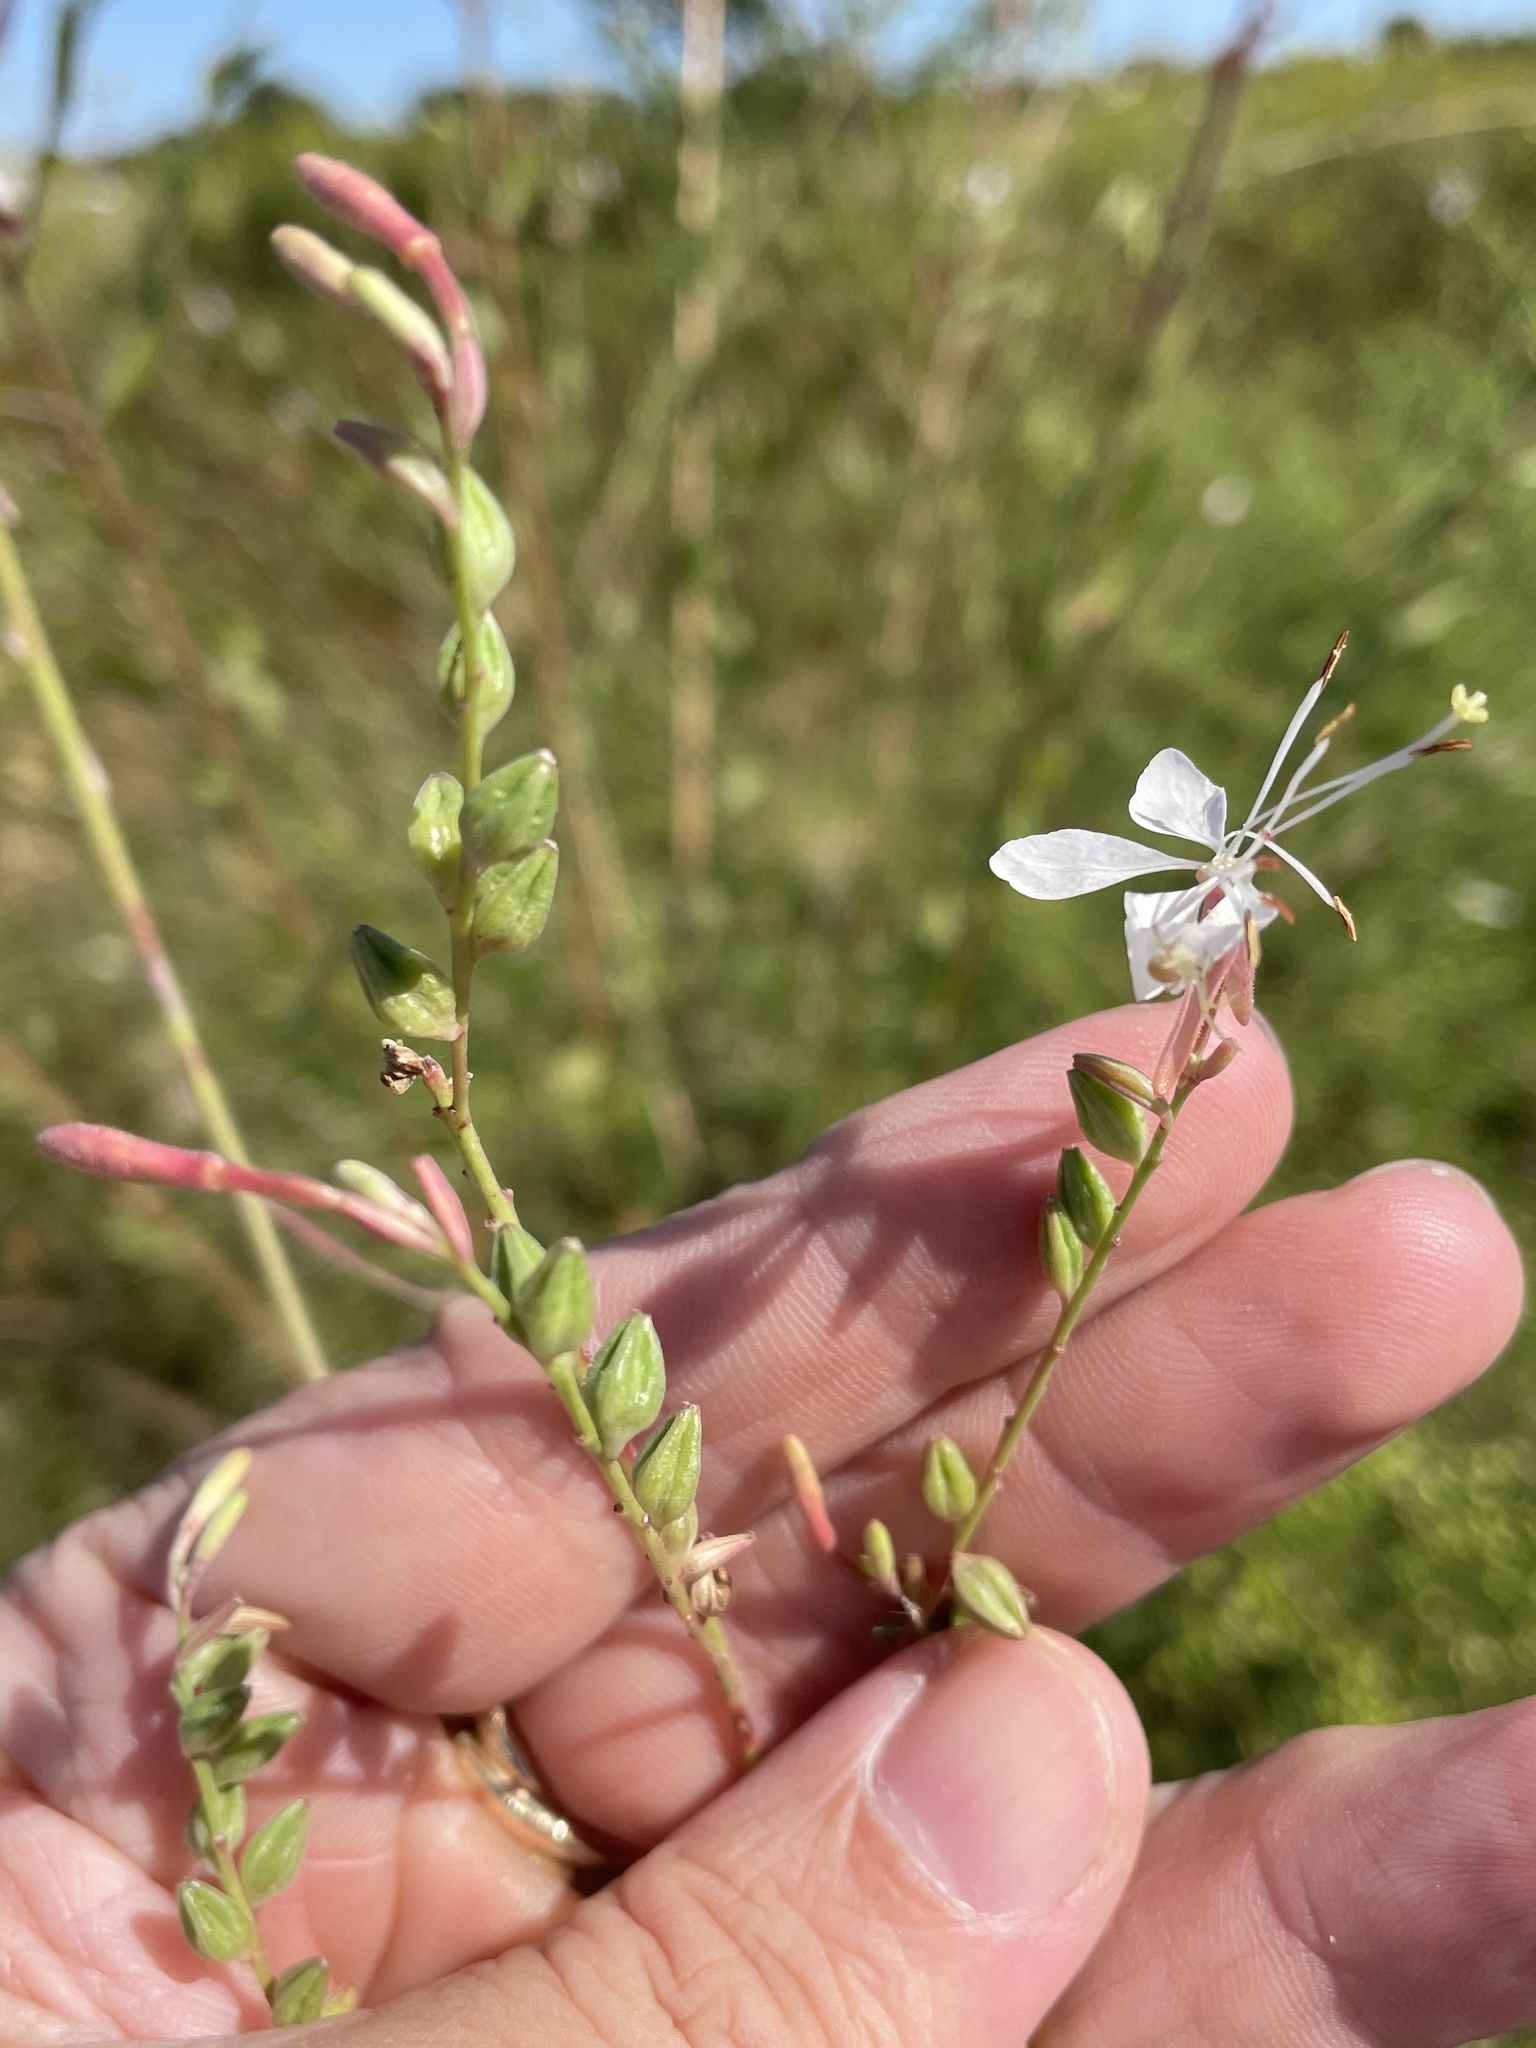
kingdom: Plantae
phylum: Tracheophyta
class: Magnoliopsida
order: Myrtales
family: Onagraceae
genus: Oenothera
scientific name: Oenothera filiformis
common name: Longflower beeblossom
